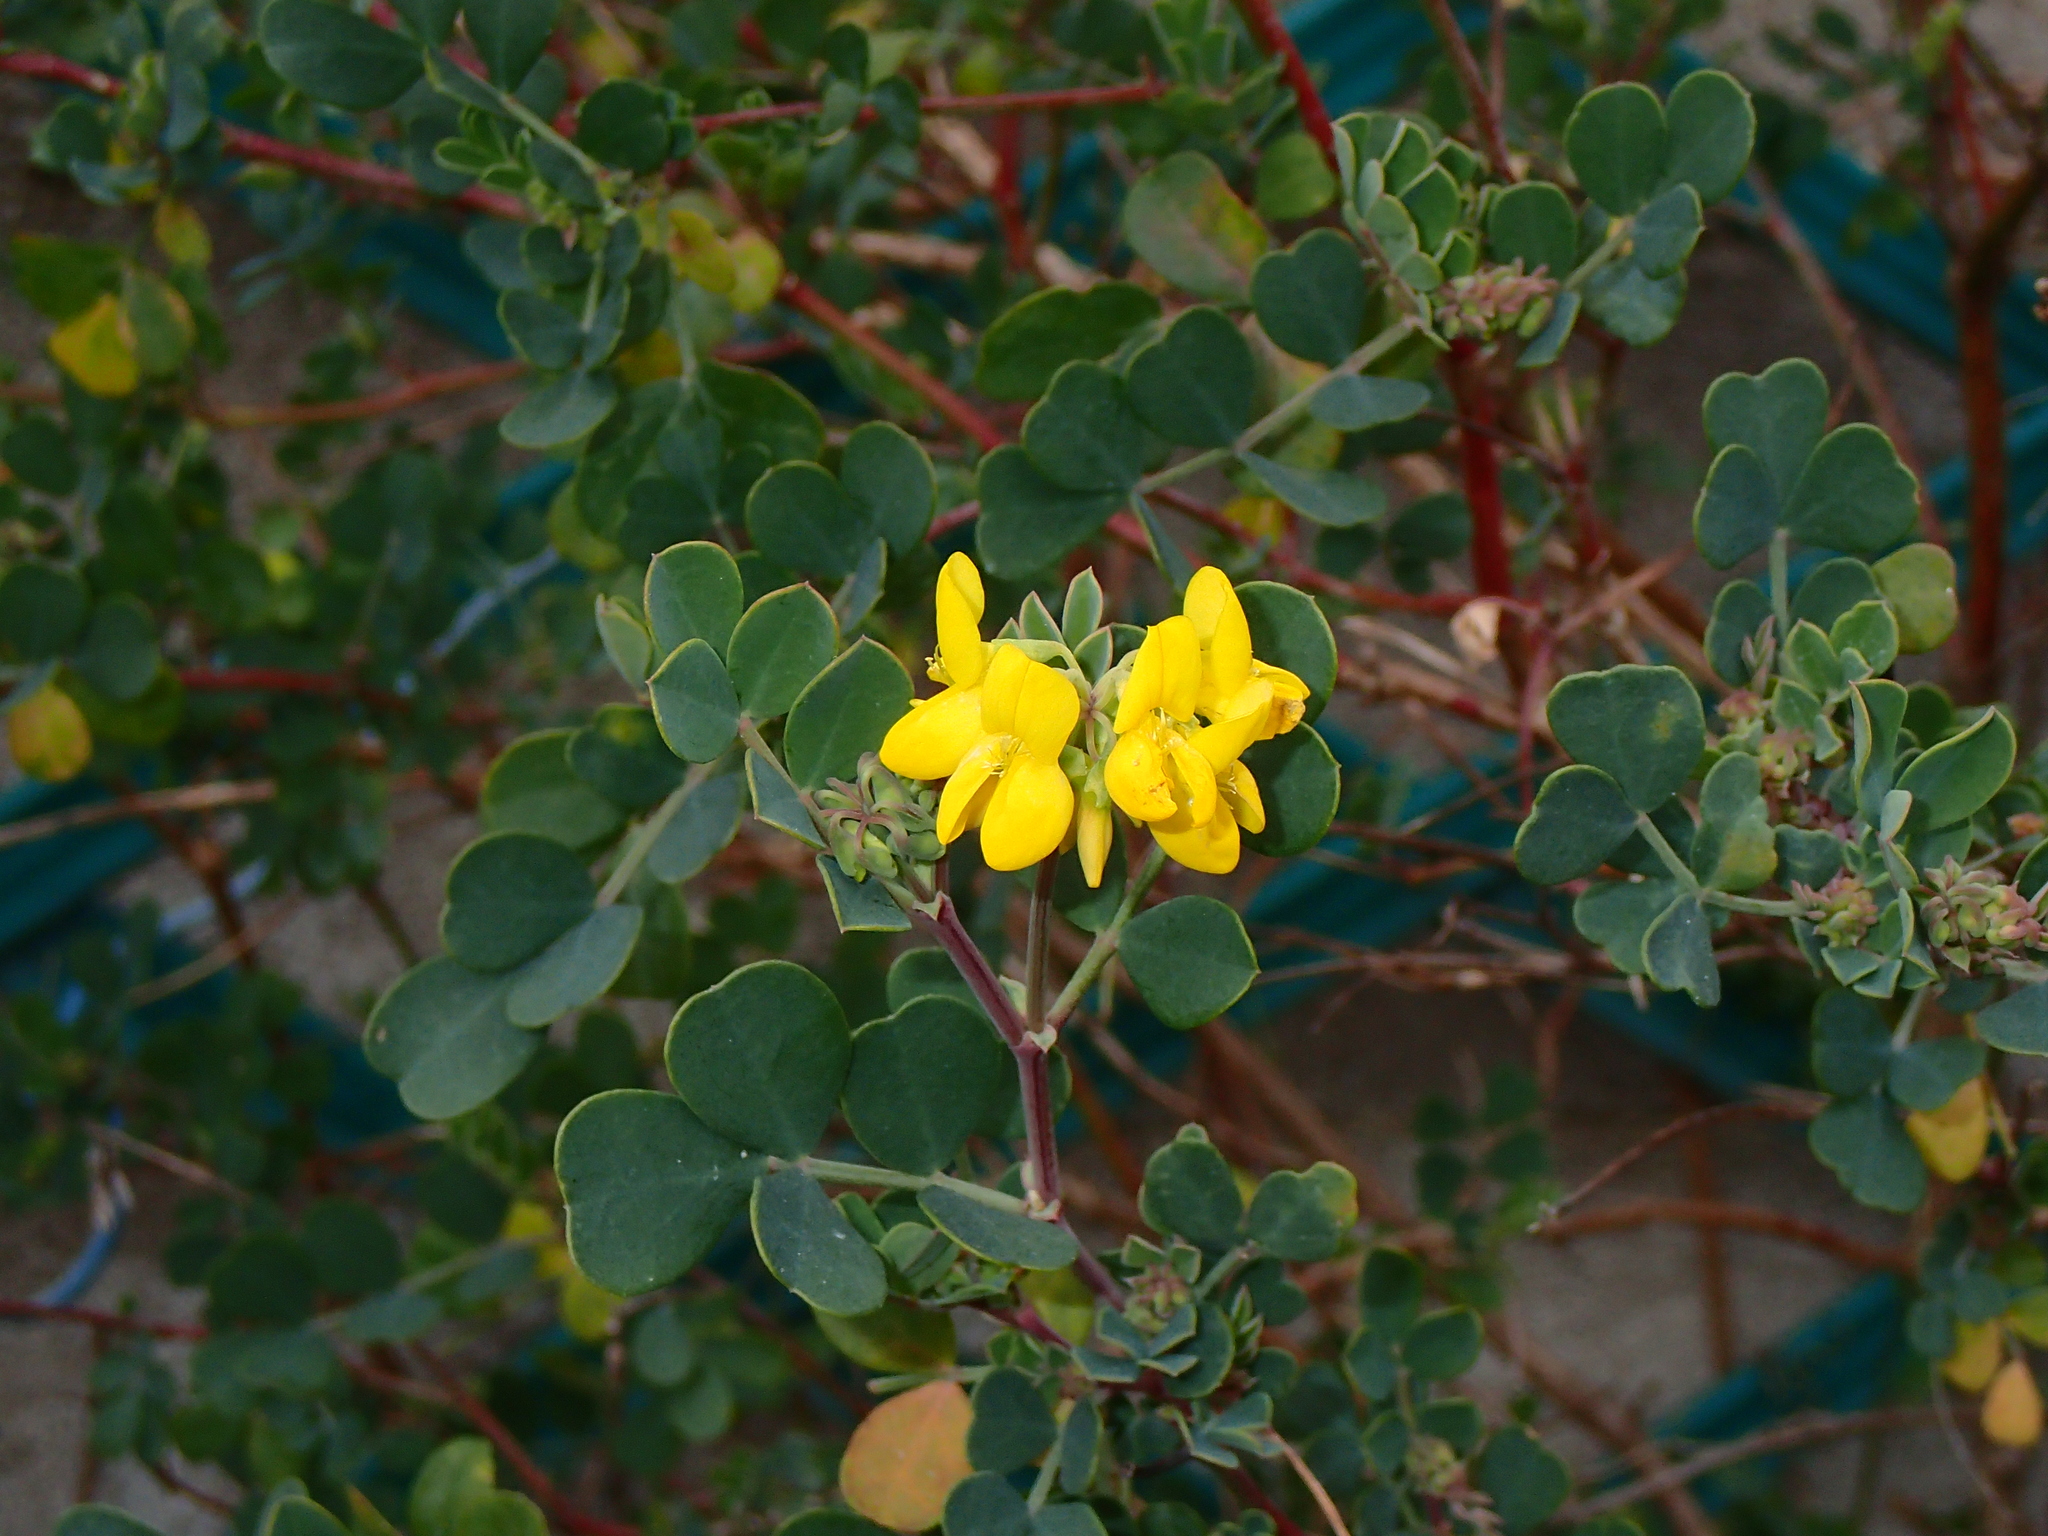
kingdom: Plantae
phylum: Tracheophyta
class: Magnoliopsida
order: Fabales
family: Fabaceae
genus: Coronilla
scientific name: Coronilla valentina
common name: Shrubby scorpion-vetch
